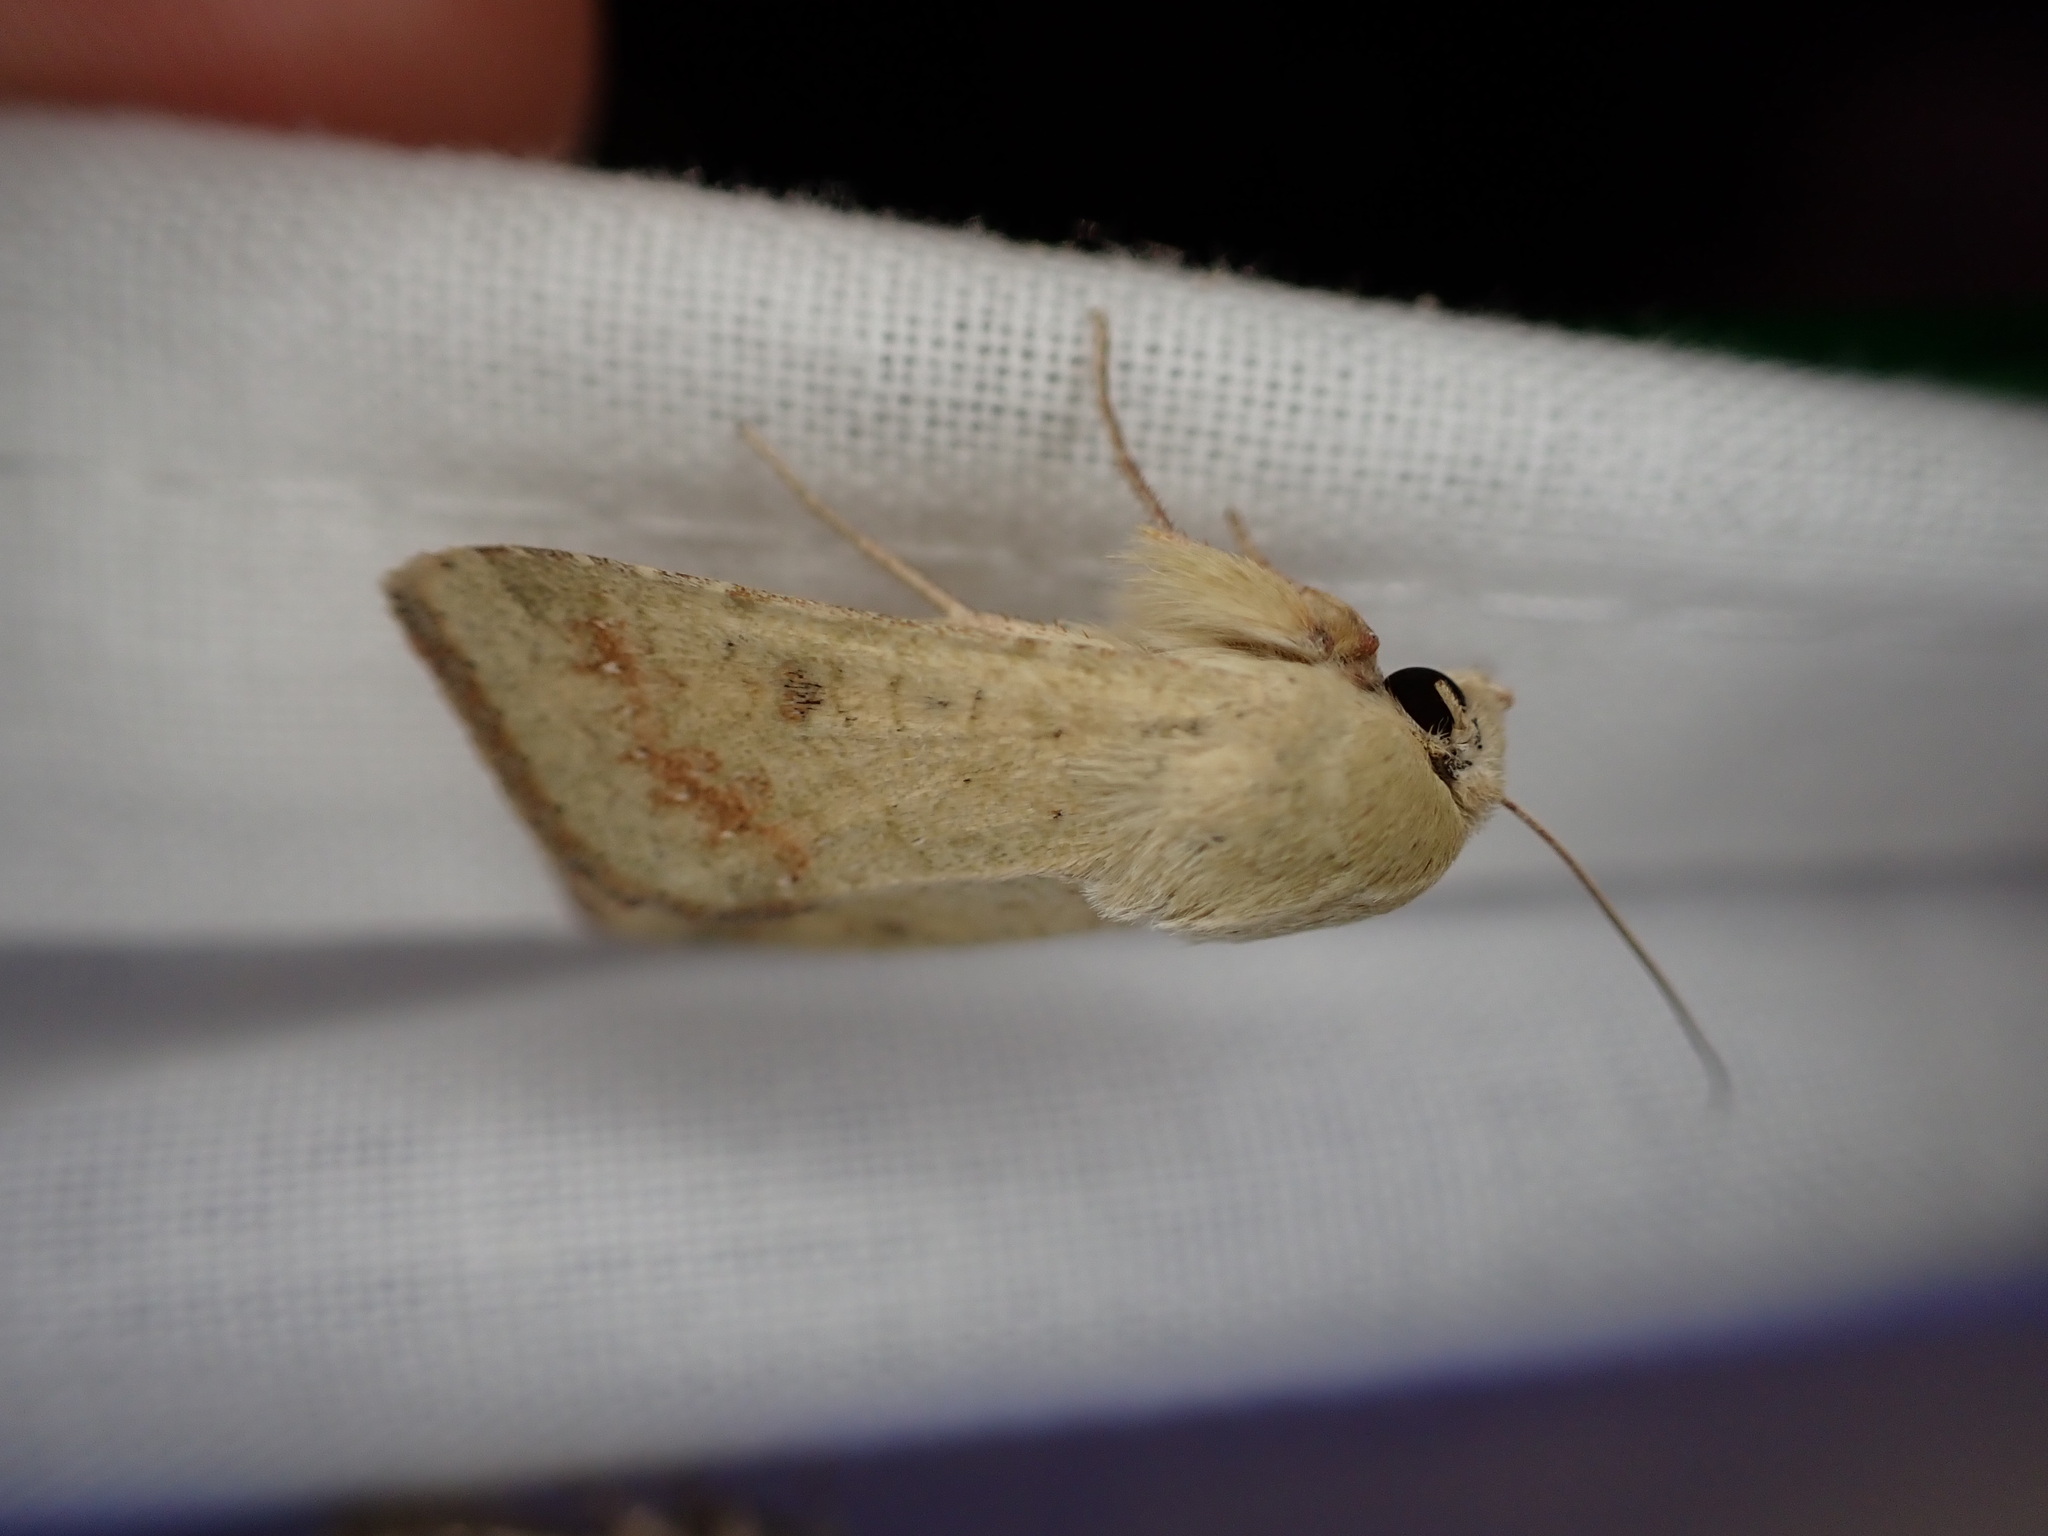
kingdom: Animalia
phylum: Arthropoda
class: Insecta
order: Lepidoptera
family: Noctuidae
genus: Helicoverpa
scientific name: Helicoverpa armigera
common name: Cotton bollworm
